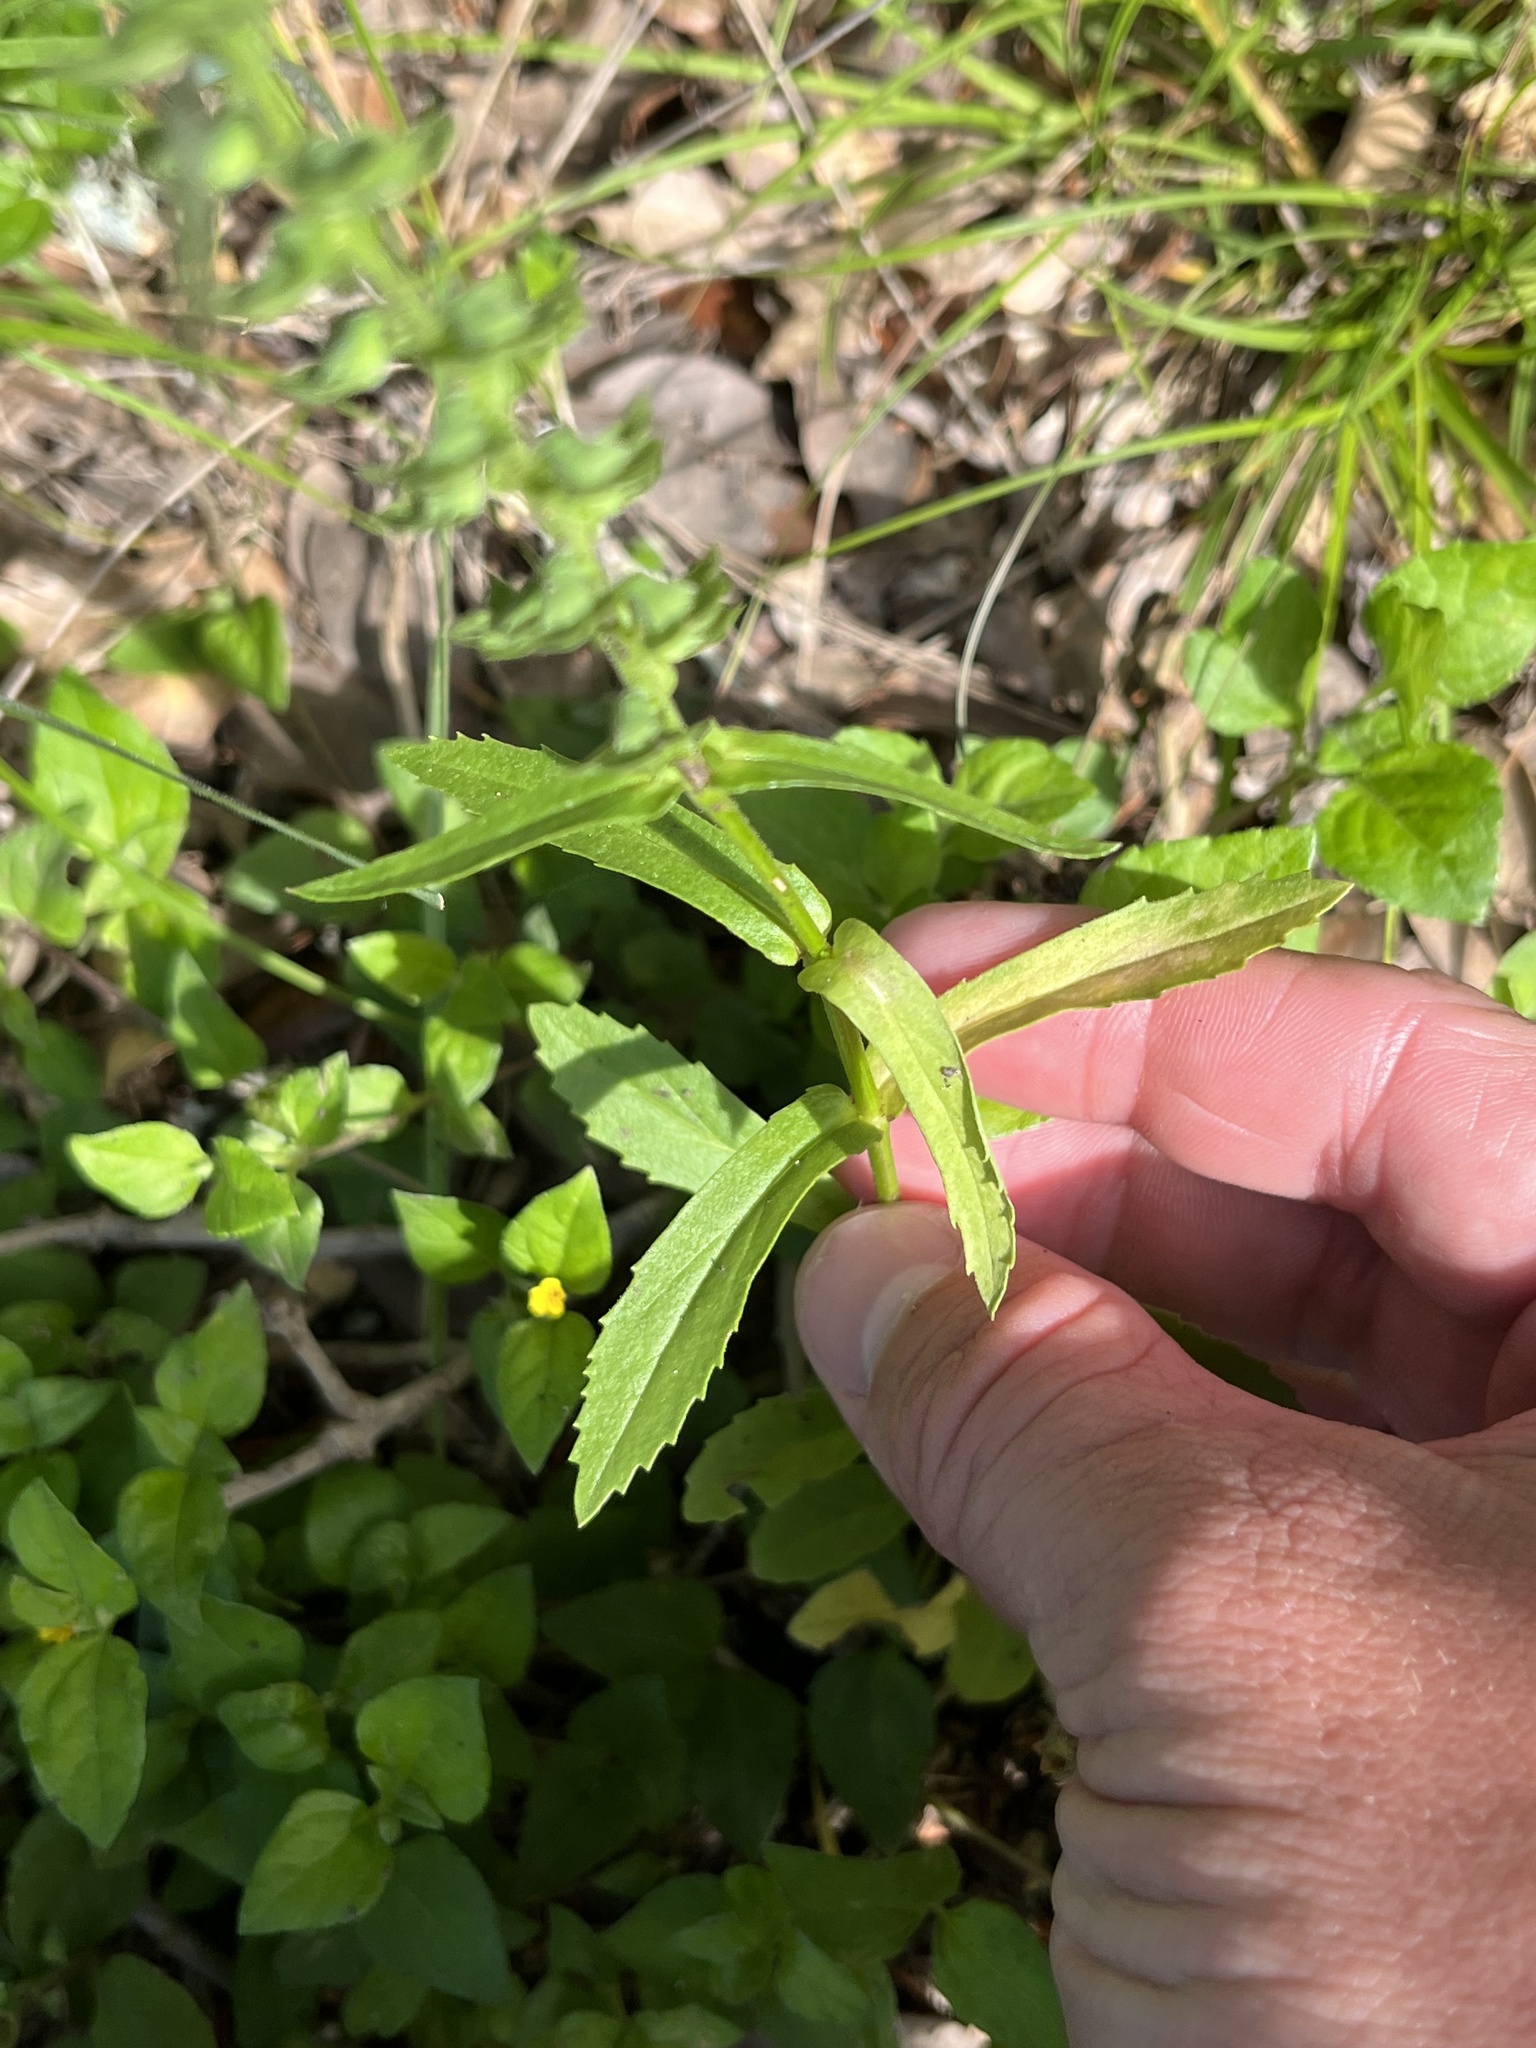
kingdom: Plantae
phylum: Tracheophyta
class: Magnoliopsida
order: Lamiales
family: Lamiaceae
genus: Warnockia
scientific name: Warnockia scutellarioides
